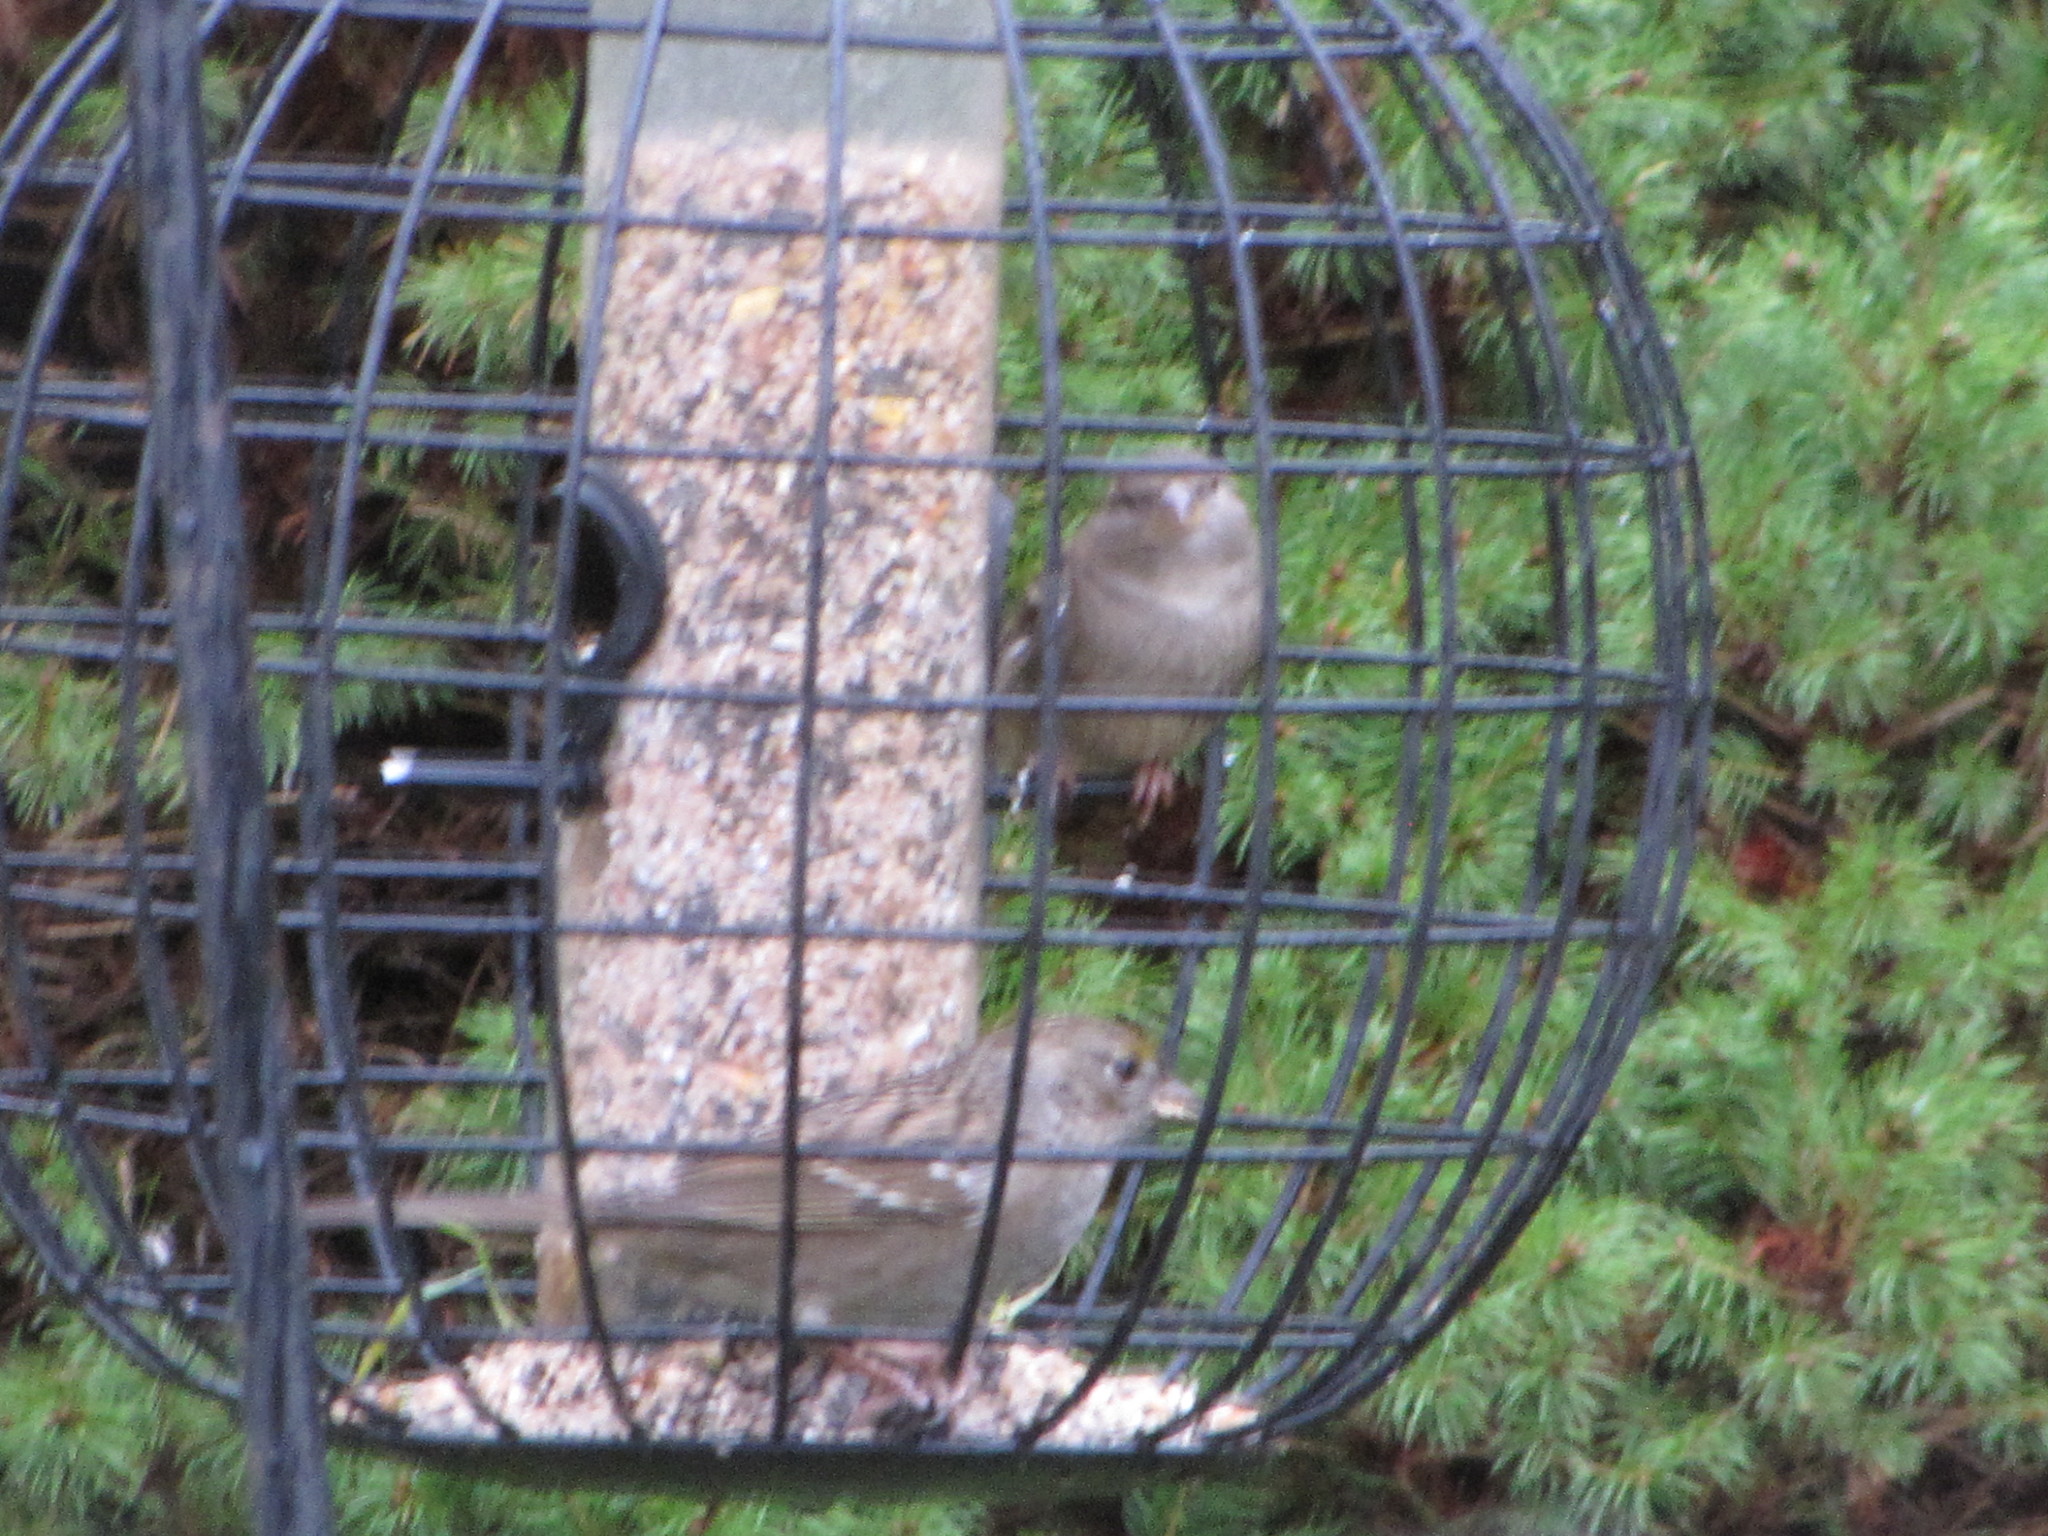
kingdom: Animalia
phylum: Chordata
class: Aves
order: Passeriformes
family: Passerellidae
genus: Zonotrichia
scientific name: Zonotrichia atricapilla
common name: Golden-crowned sparrow
